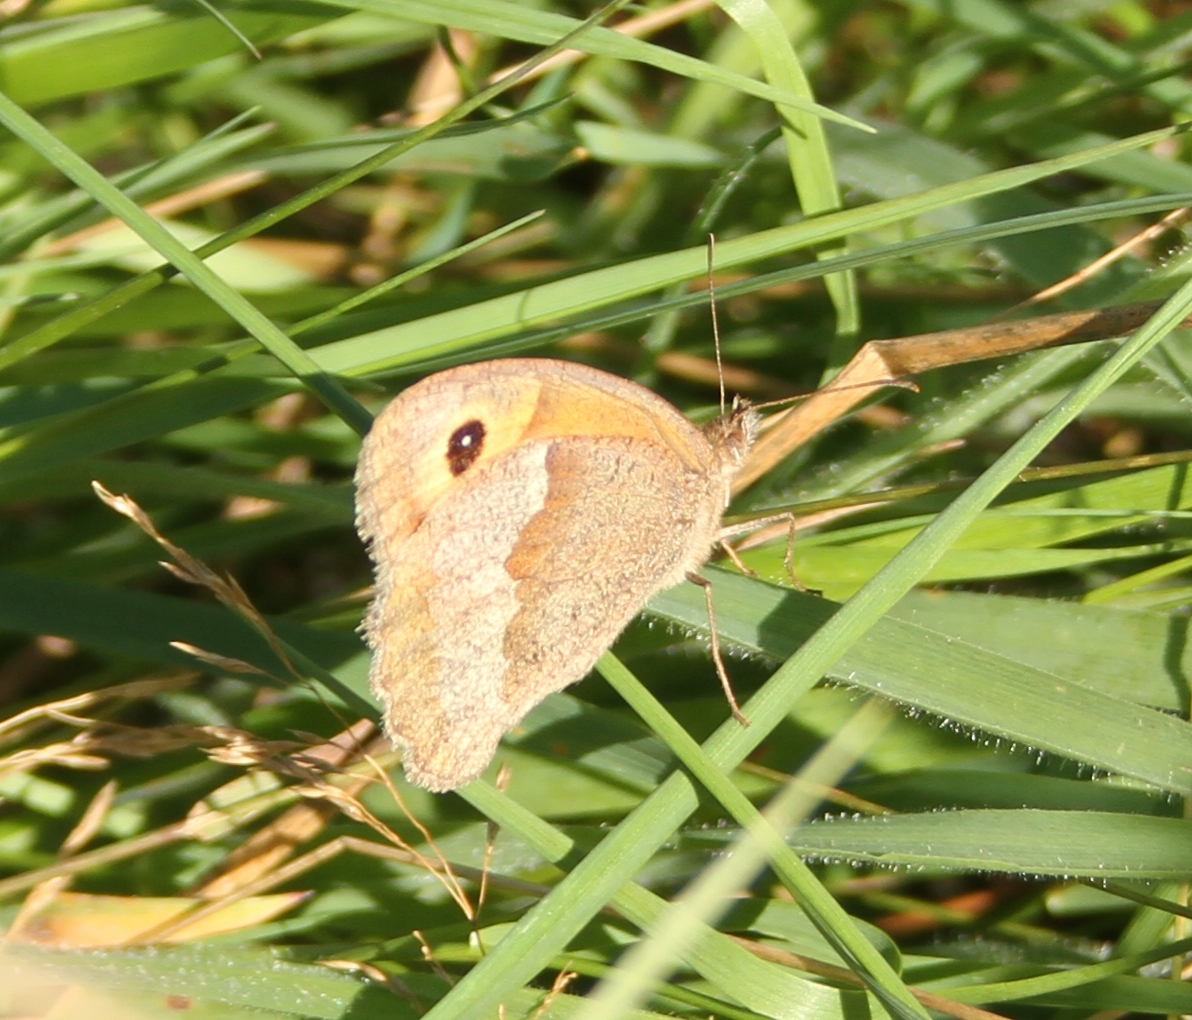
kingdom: Animalia
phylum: Arthropoda
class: Insecta
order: Lepidoptera
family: Nymphalidae
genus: Maniola
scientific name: Maniola jurtina
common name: Meadow brown
